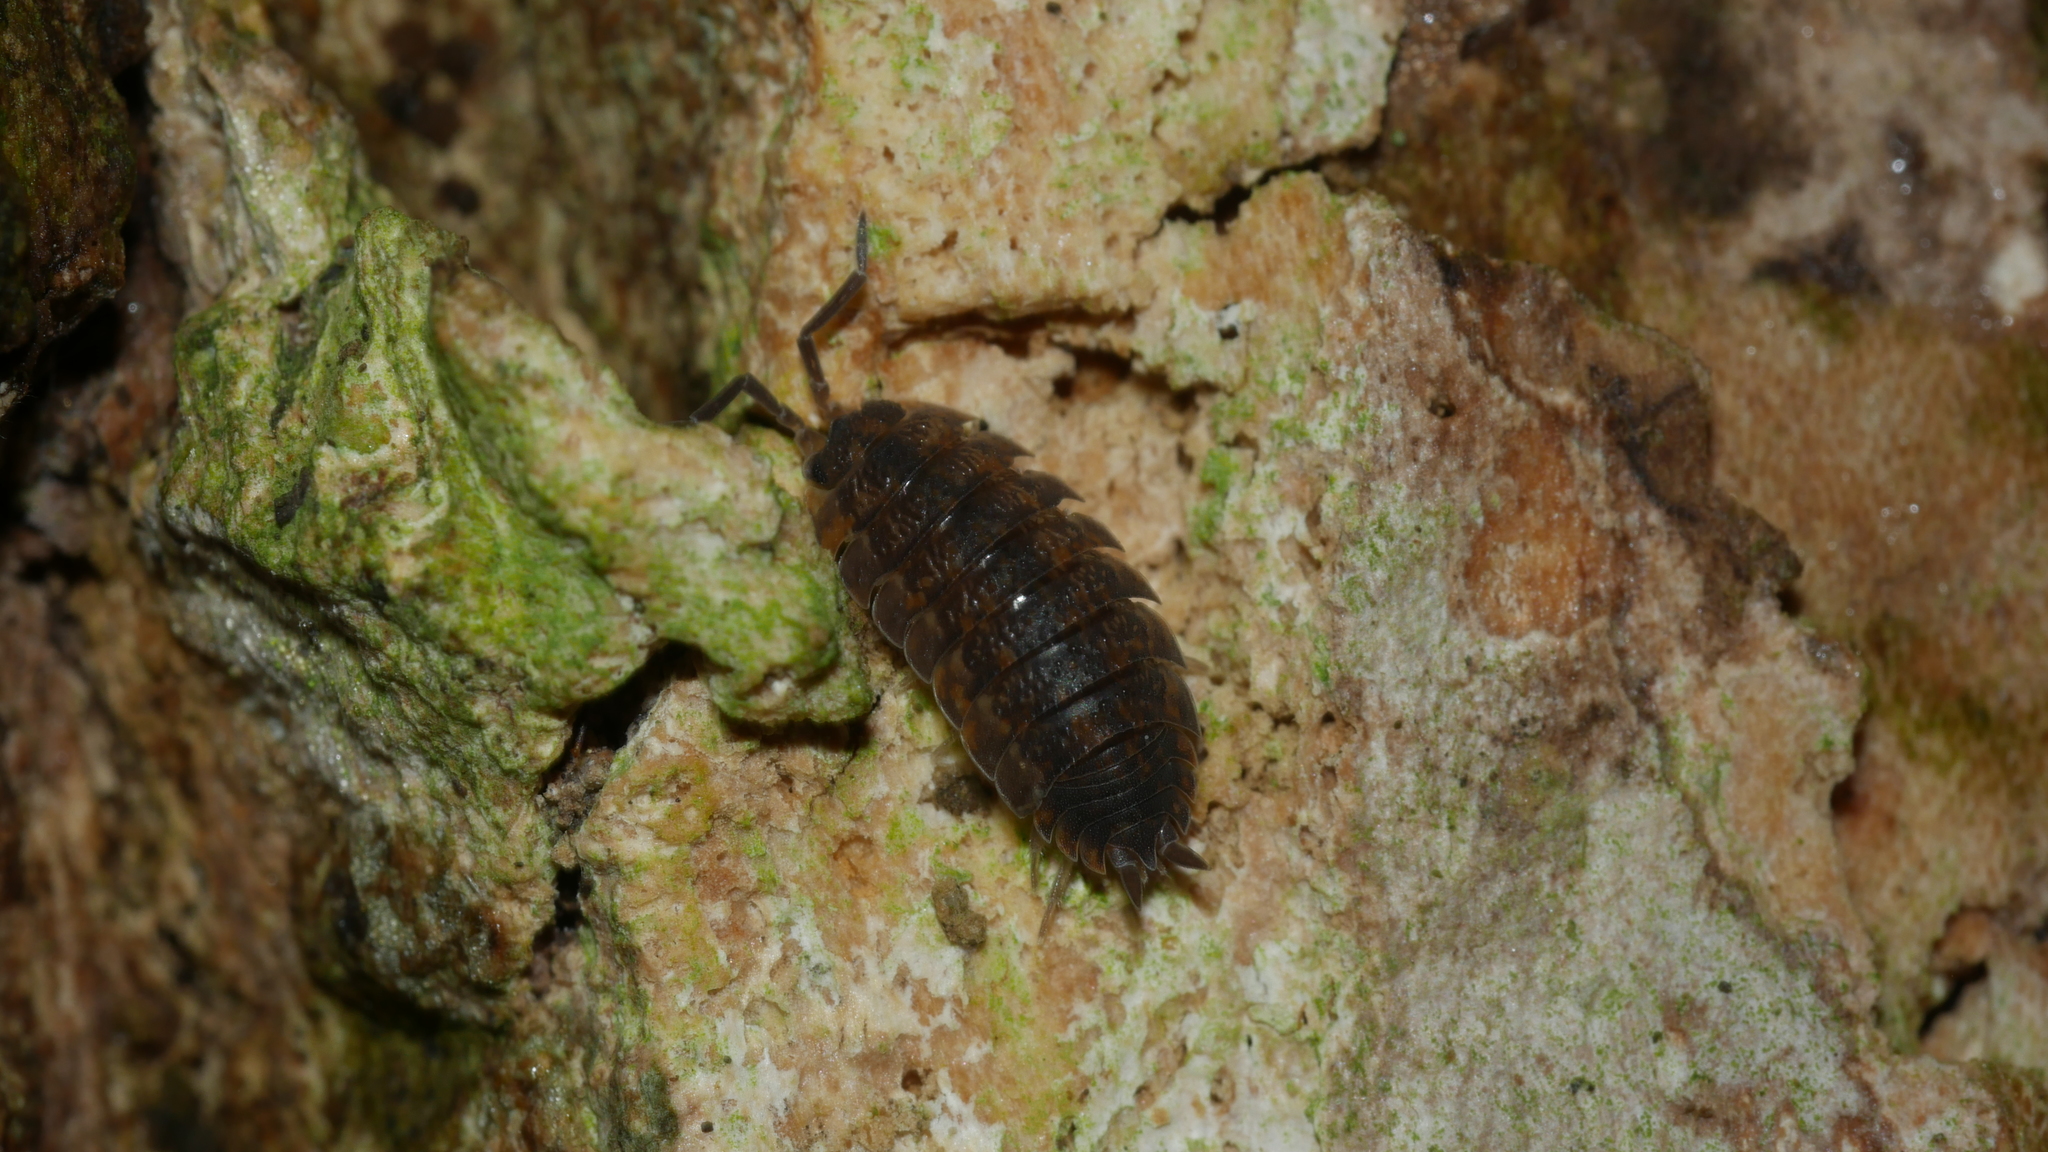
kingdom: Animalia
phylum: Arthropoda
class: Malacostraca
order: Isopoda
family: Porcellionidae
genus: Porcellio
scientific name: Porcellio scaber
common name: Common rough woodlouse
